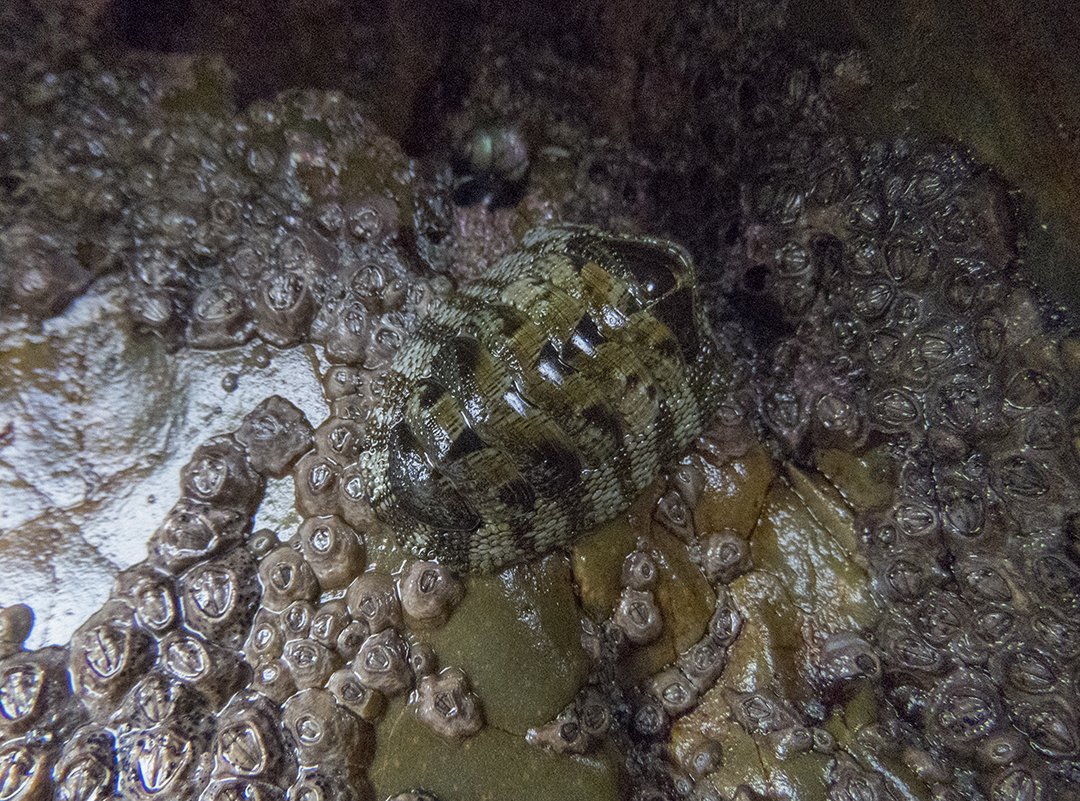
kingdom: Animalia
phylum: Mollusca
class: Polyplacophora
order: Chitonida
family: Chitonidae
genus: Sypharochiton
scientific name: Sypharochiton pelliserpentis
